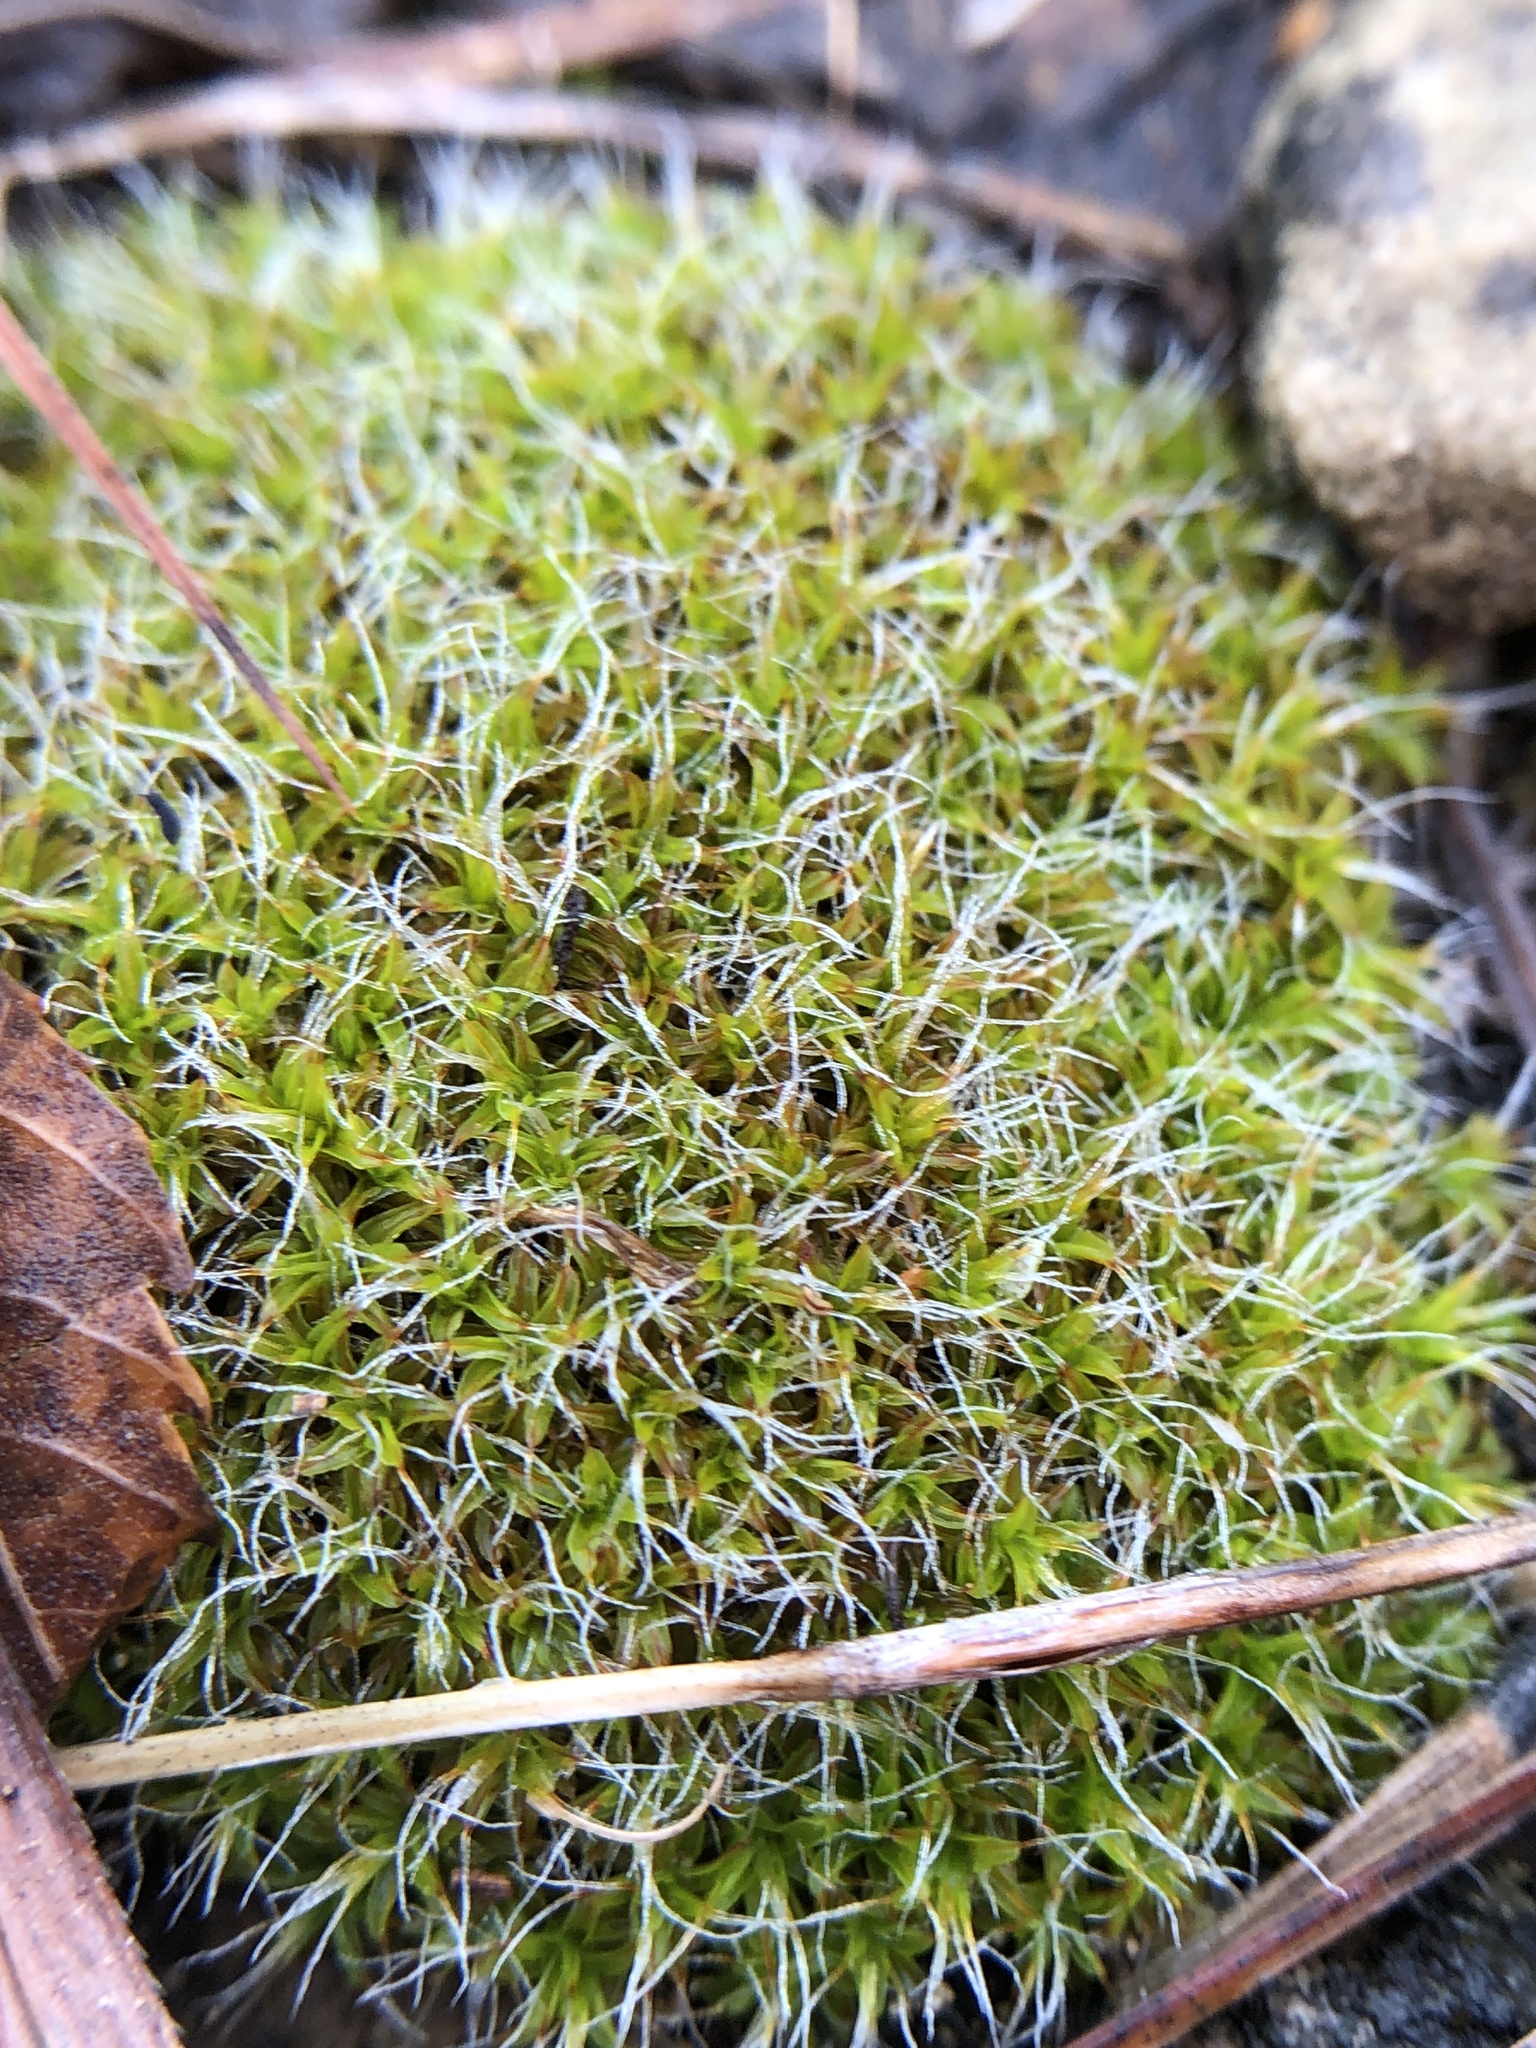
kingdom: Plantae
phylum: Bryophyta
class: Bryopsida
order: Pottiales
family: Pottiaceae
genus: Syntrichia
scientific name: Syntrichia ruralis
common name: Sidewalk screw moss
